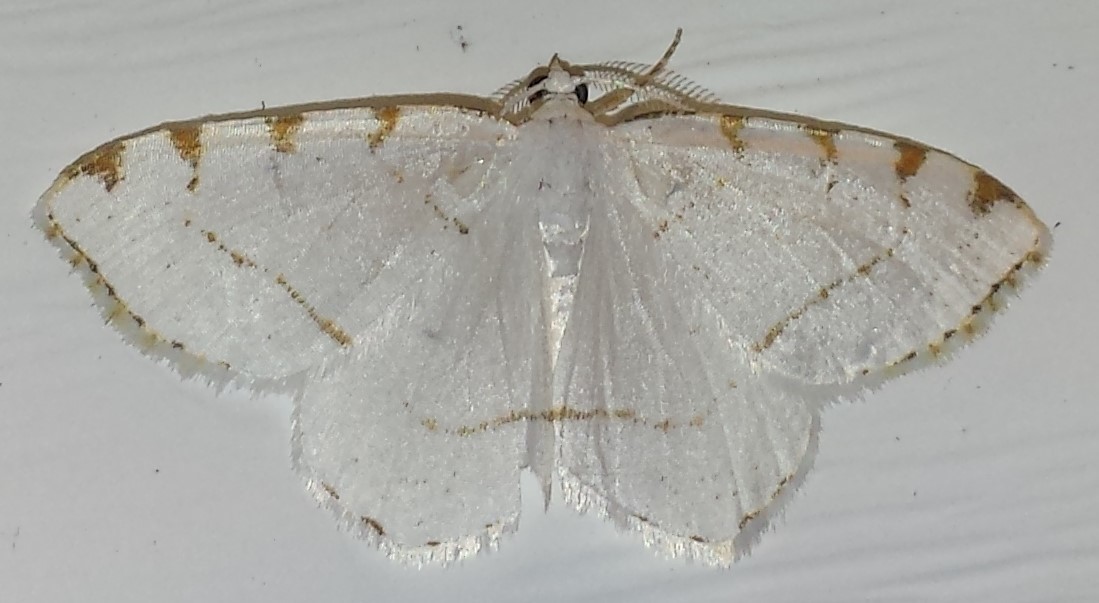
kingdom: Animalia
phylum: Arthropoda
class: Insecta
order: Lepidoptera
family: Geometridae
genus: Macaria
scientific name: Macaria pustularia
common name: Lesser maple spanworm moth
